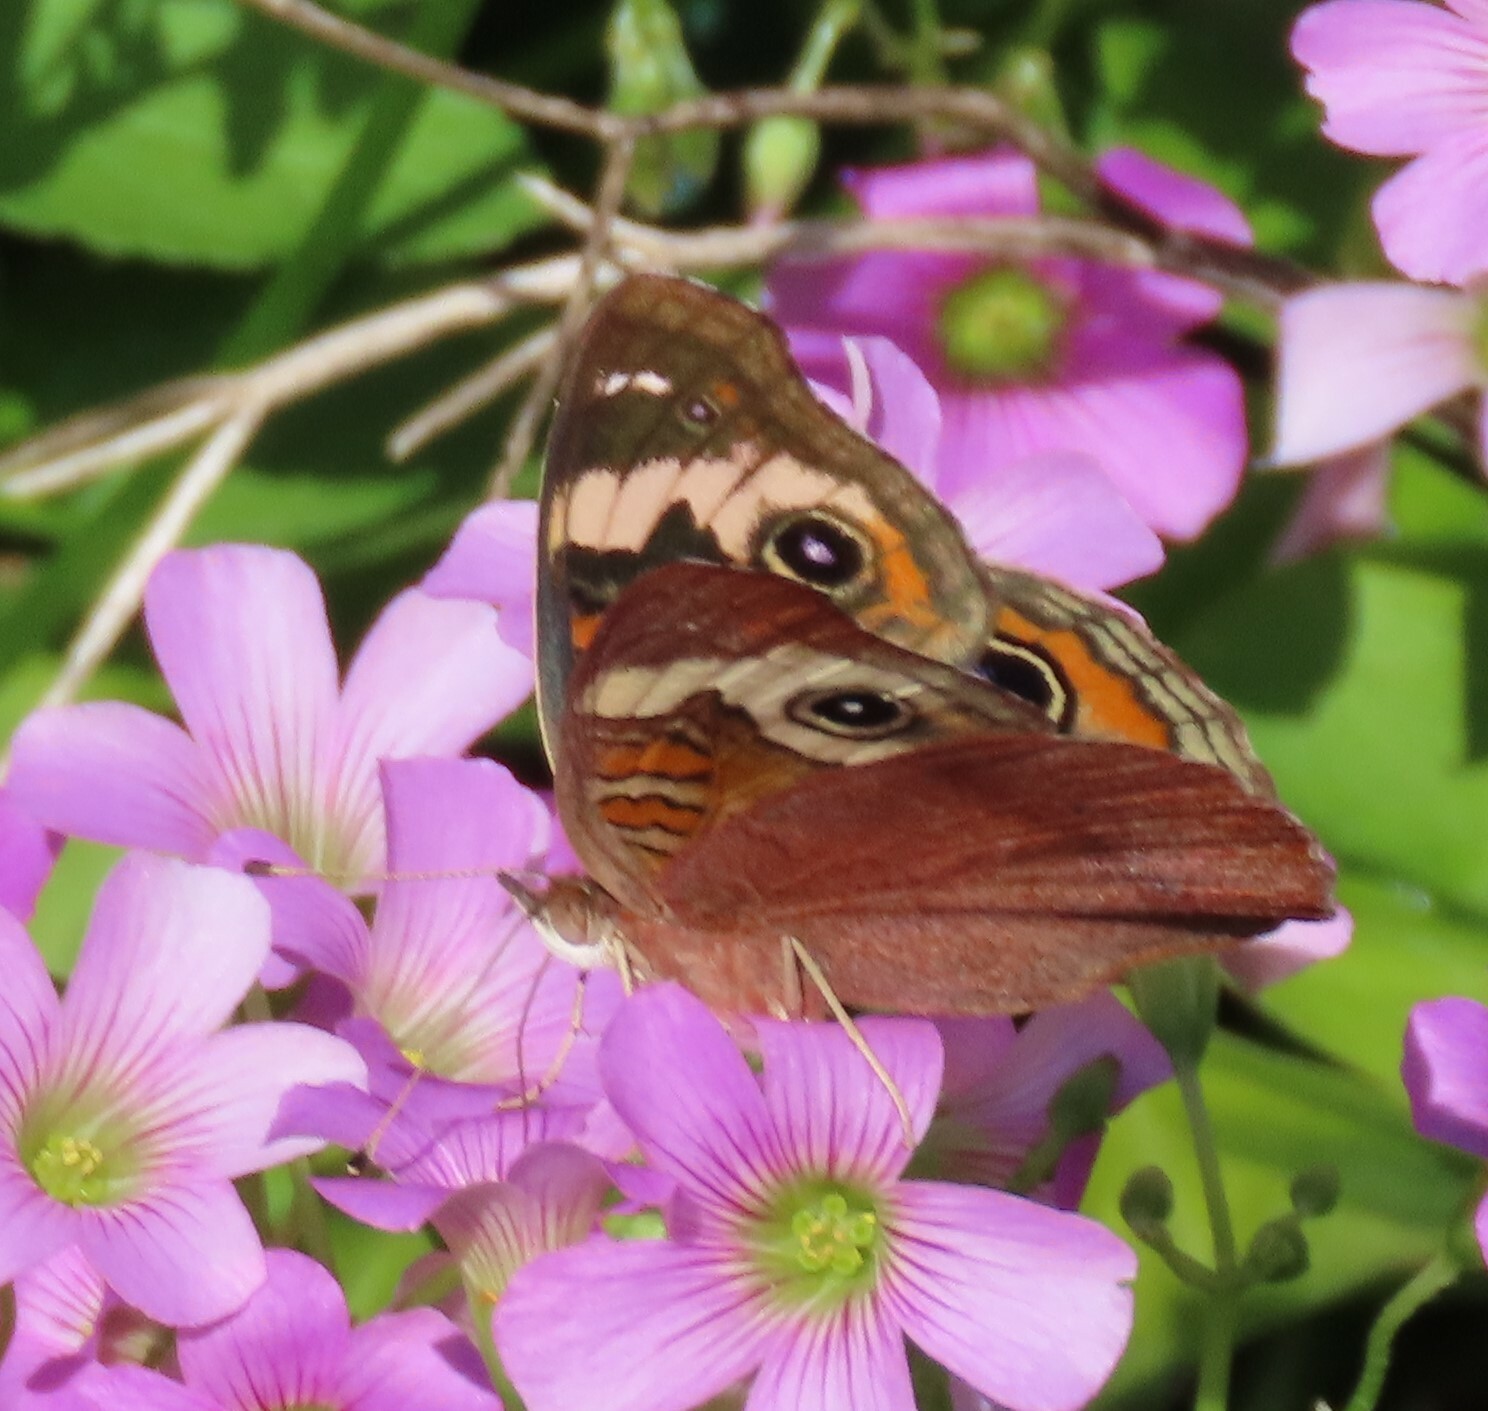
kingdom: Animalia
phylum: Arthropoda
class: Insecta
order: Lepidoptera
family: Nymphalidae
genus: Junonia
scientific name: Junonia coenia
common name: Common buckeye
